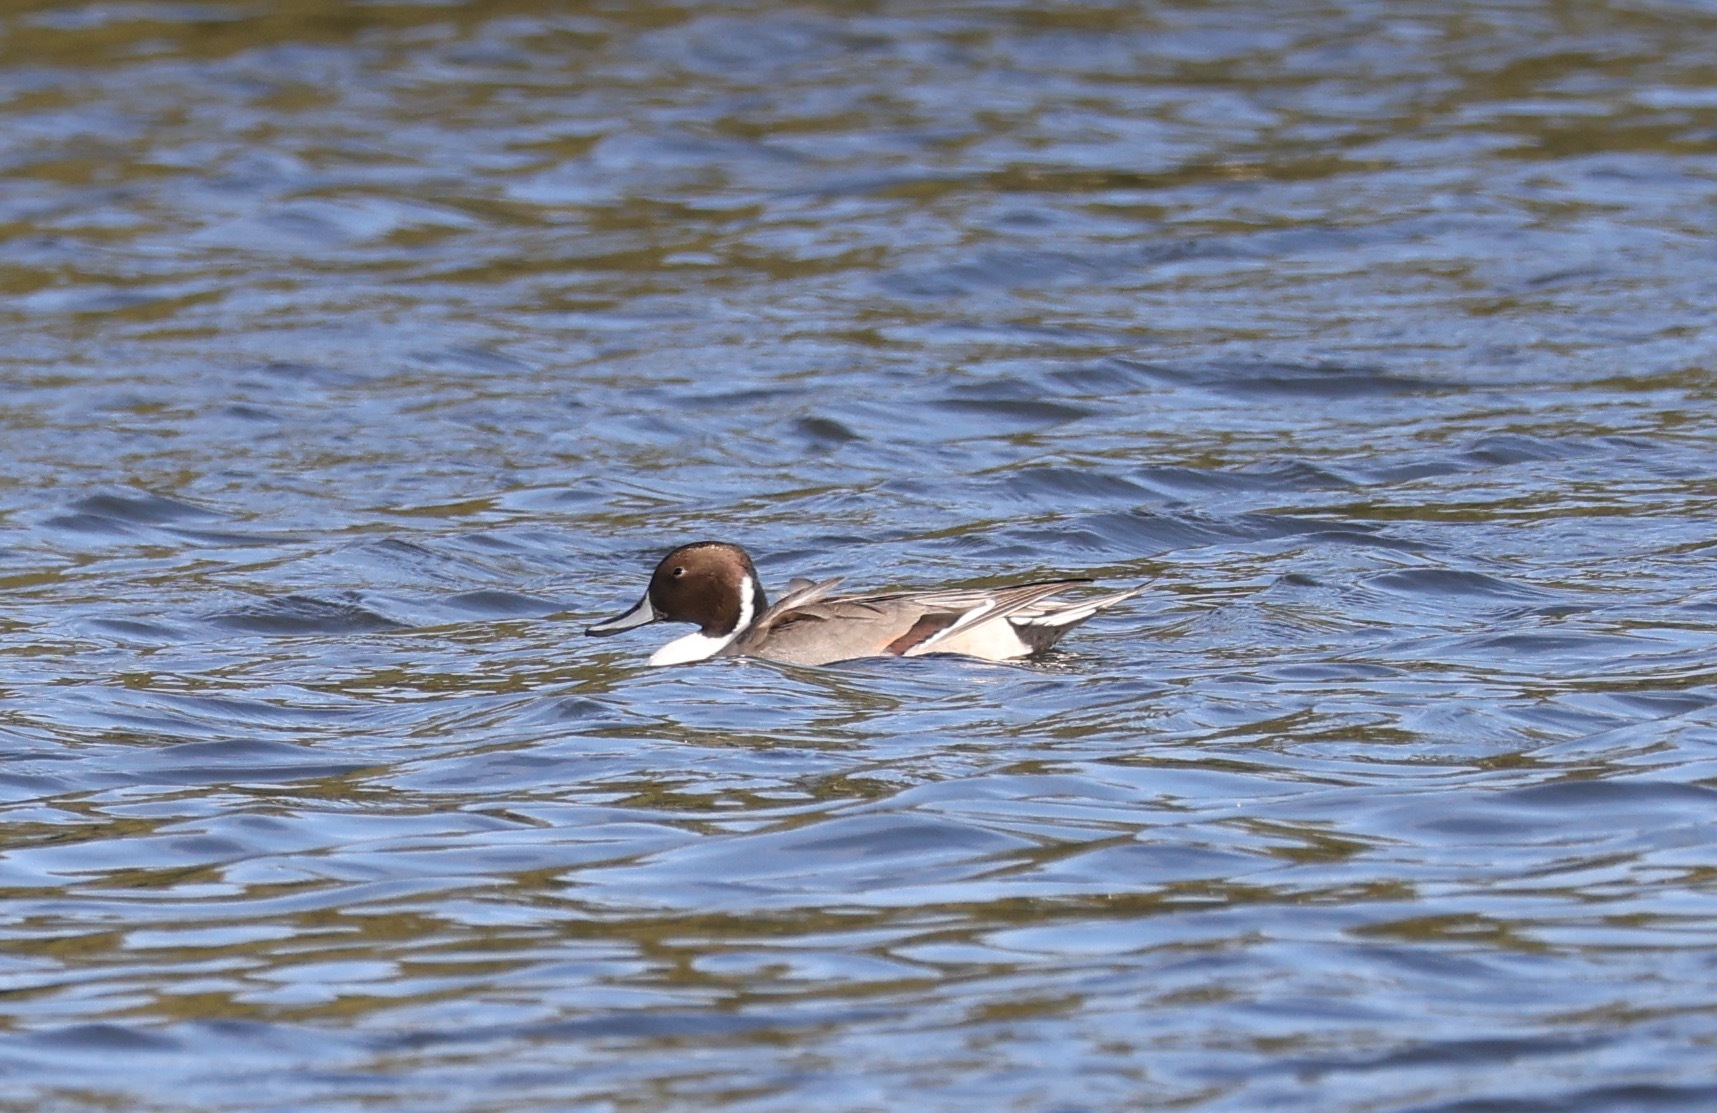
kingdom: Animalia
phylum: Chordata
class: Aves
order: Anseriformes
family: Anatidae
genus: Anas
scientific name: Anas acuta
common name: Northern pintail
